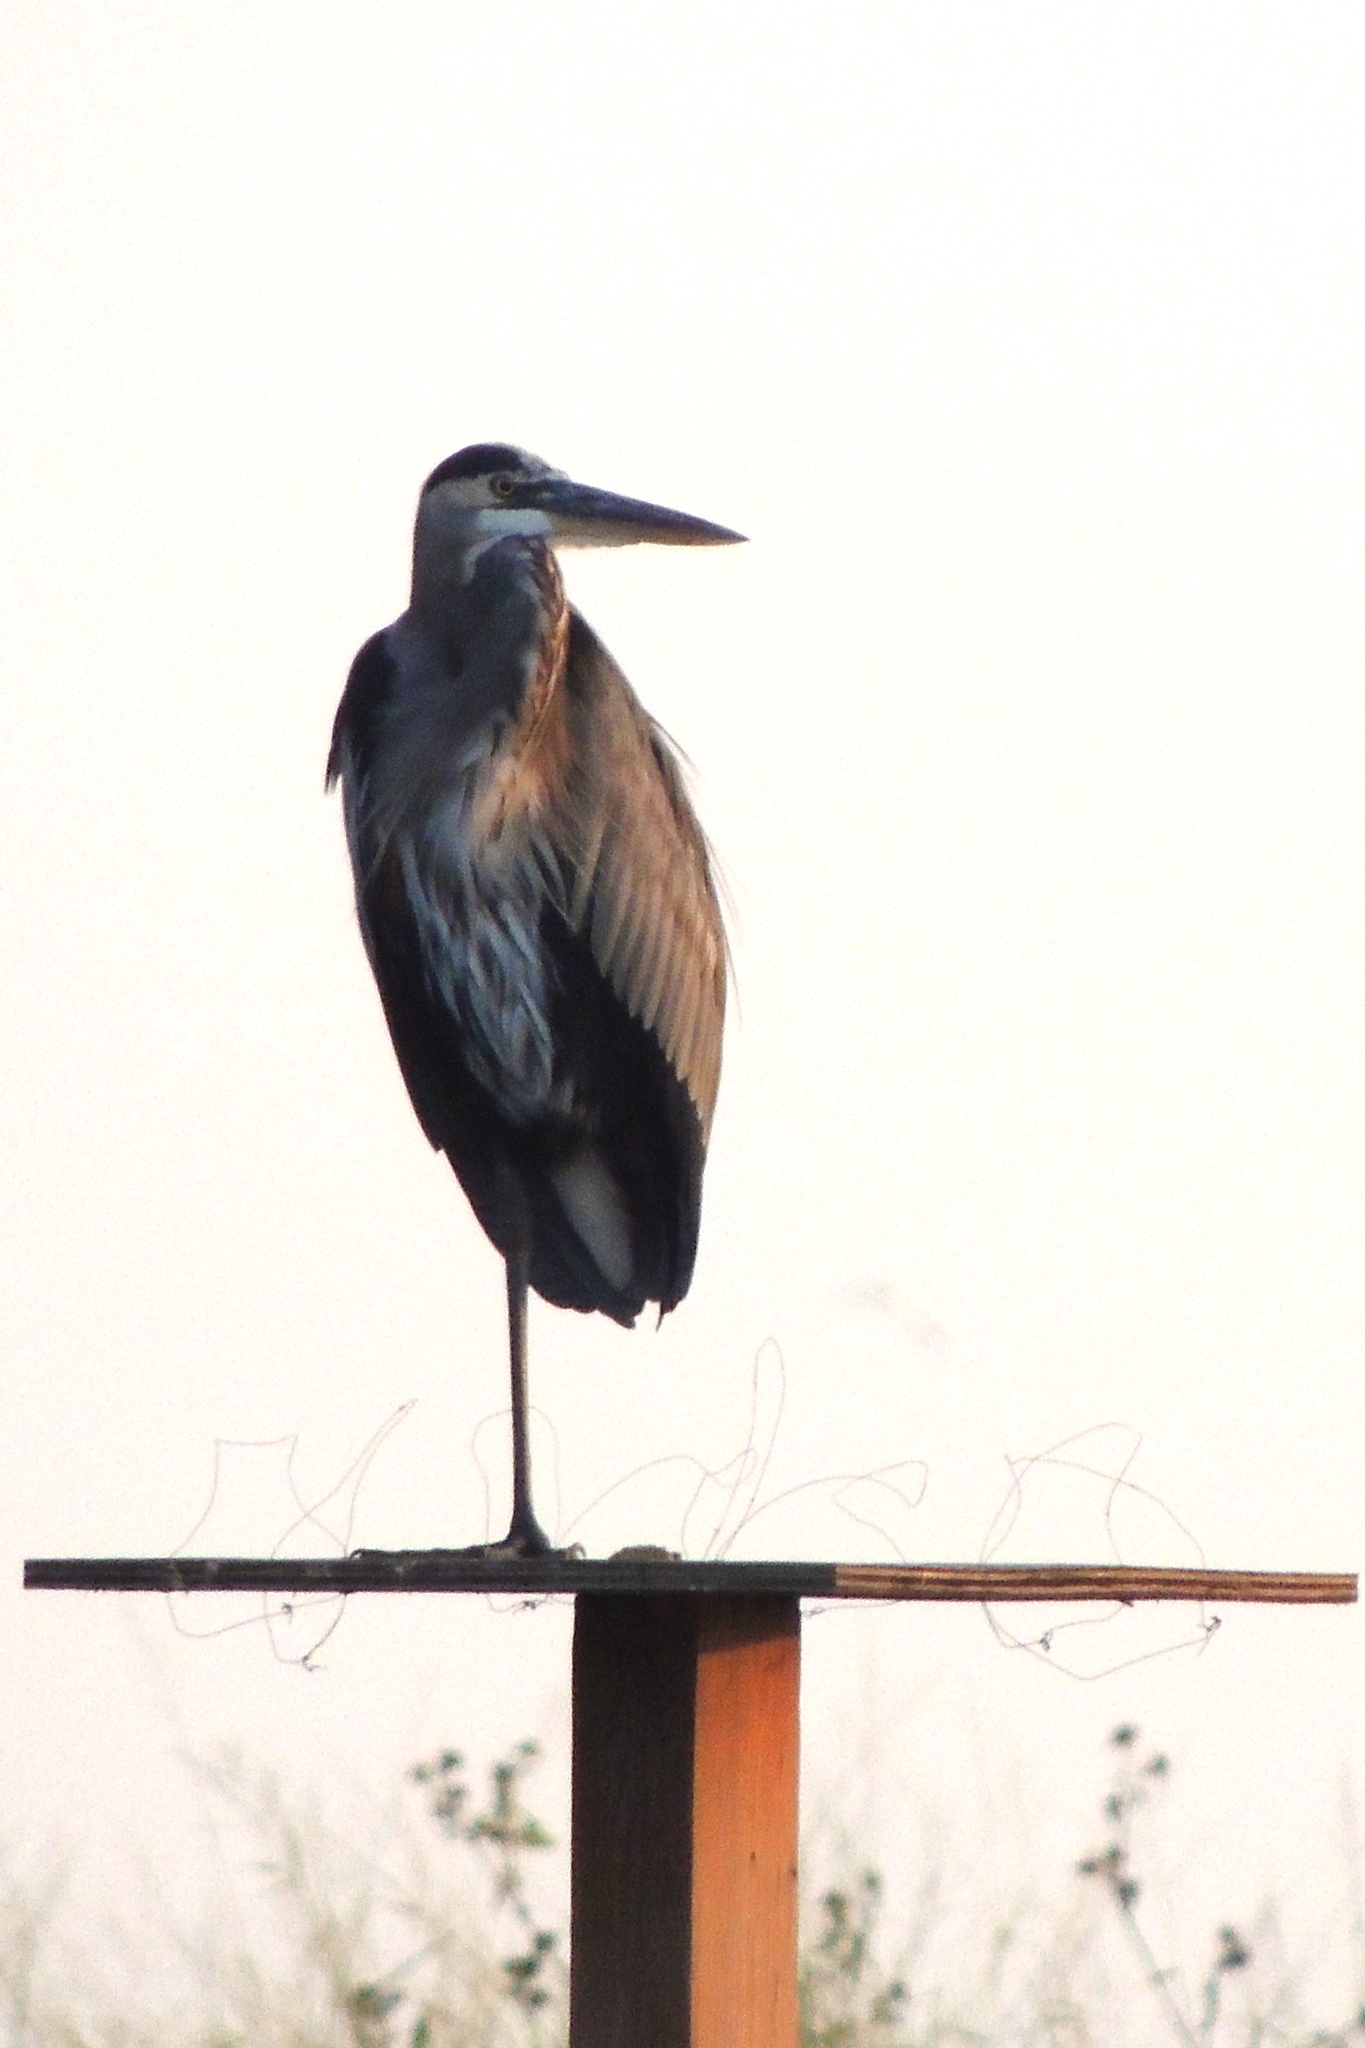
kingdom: Animalia
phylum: Chordata
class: Aves
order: Pelecaniformes
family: Ardeidae
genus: Ardea
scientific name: Ardea herodias
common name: Great blue heron
